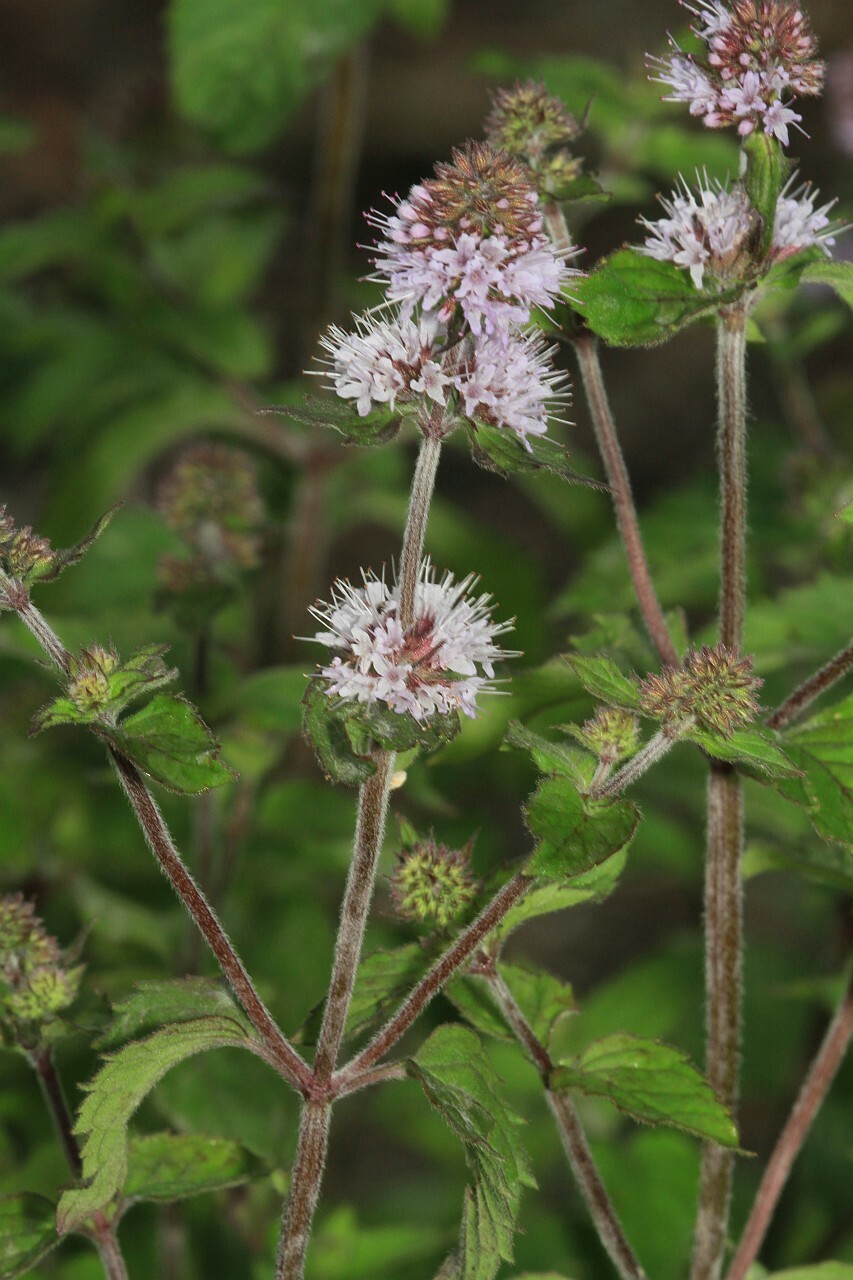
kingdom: Plantae
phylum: Tracheophyta
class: Magnoliopsida
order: Lamiales
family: Lamiaceae
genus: Mentha
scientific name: Mentha aquatica
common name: Water mint
